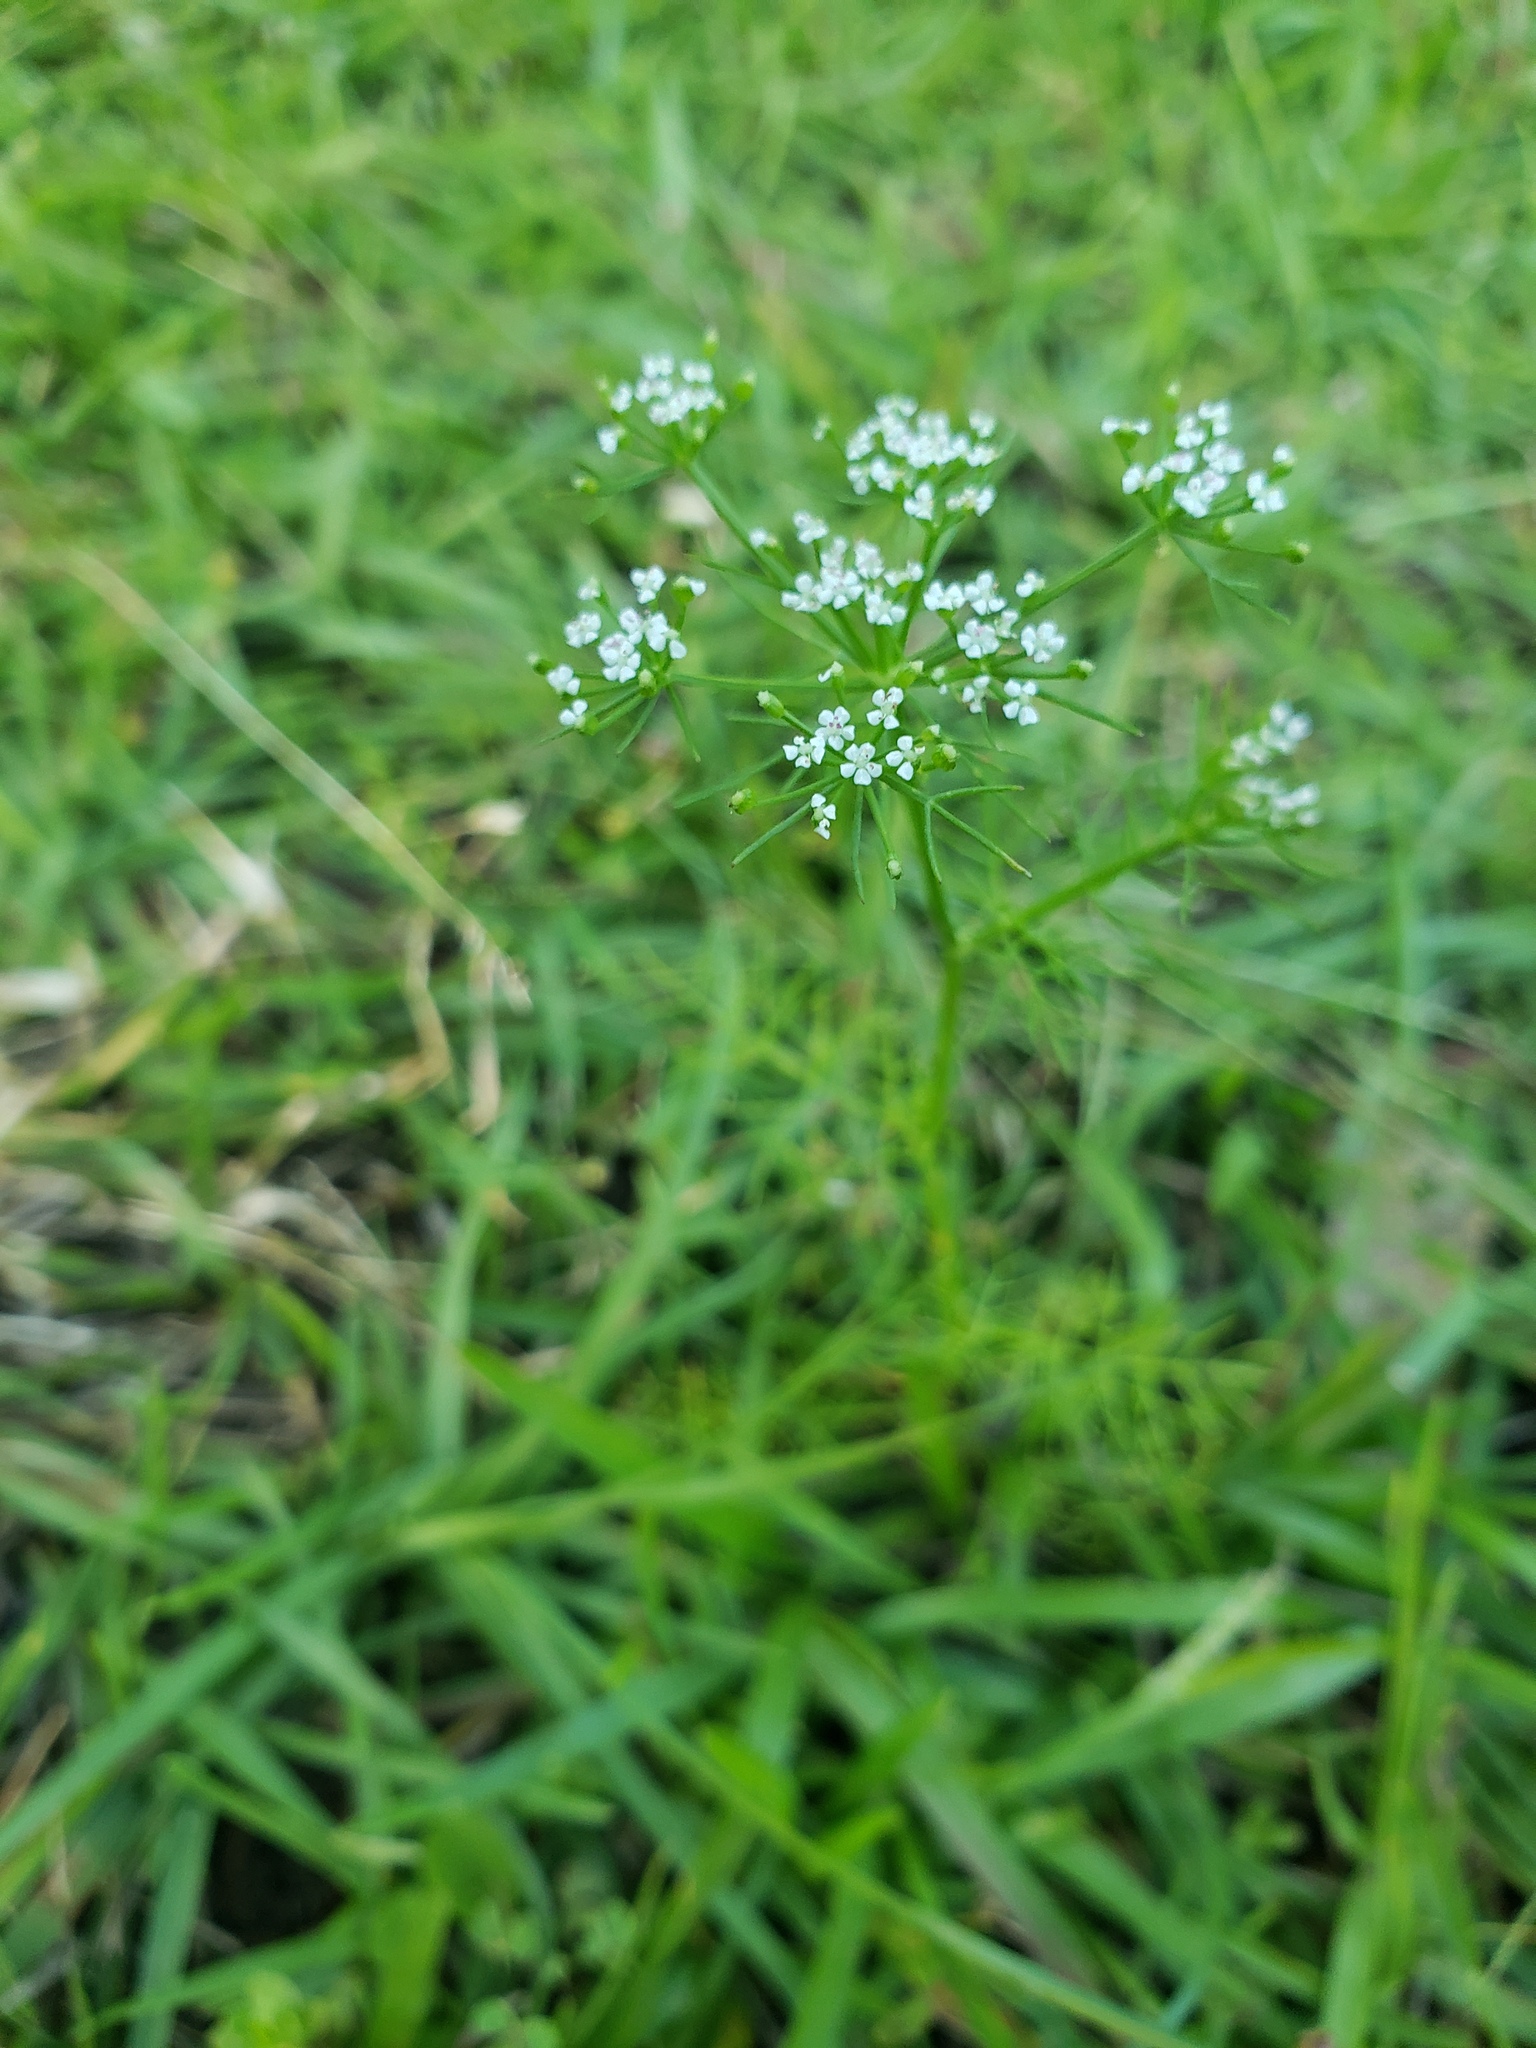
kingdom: Plantae
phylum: Tracheophyta
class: Magnoliopsida
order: Apiales
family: Apiaceae
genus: Ptilimnium
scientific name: Ptilimnium capillaceum
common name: Herbwilliam
